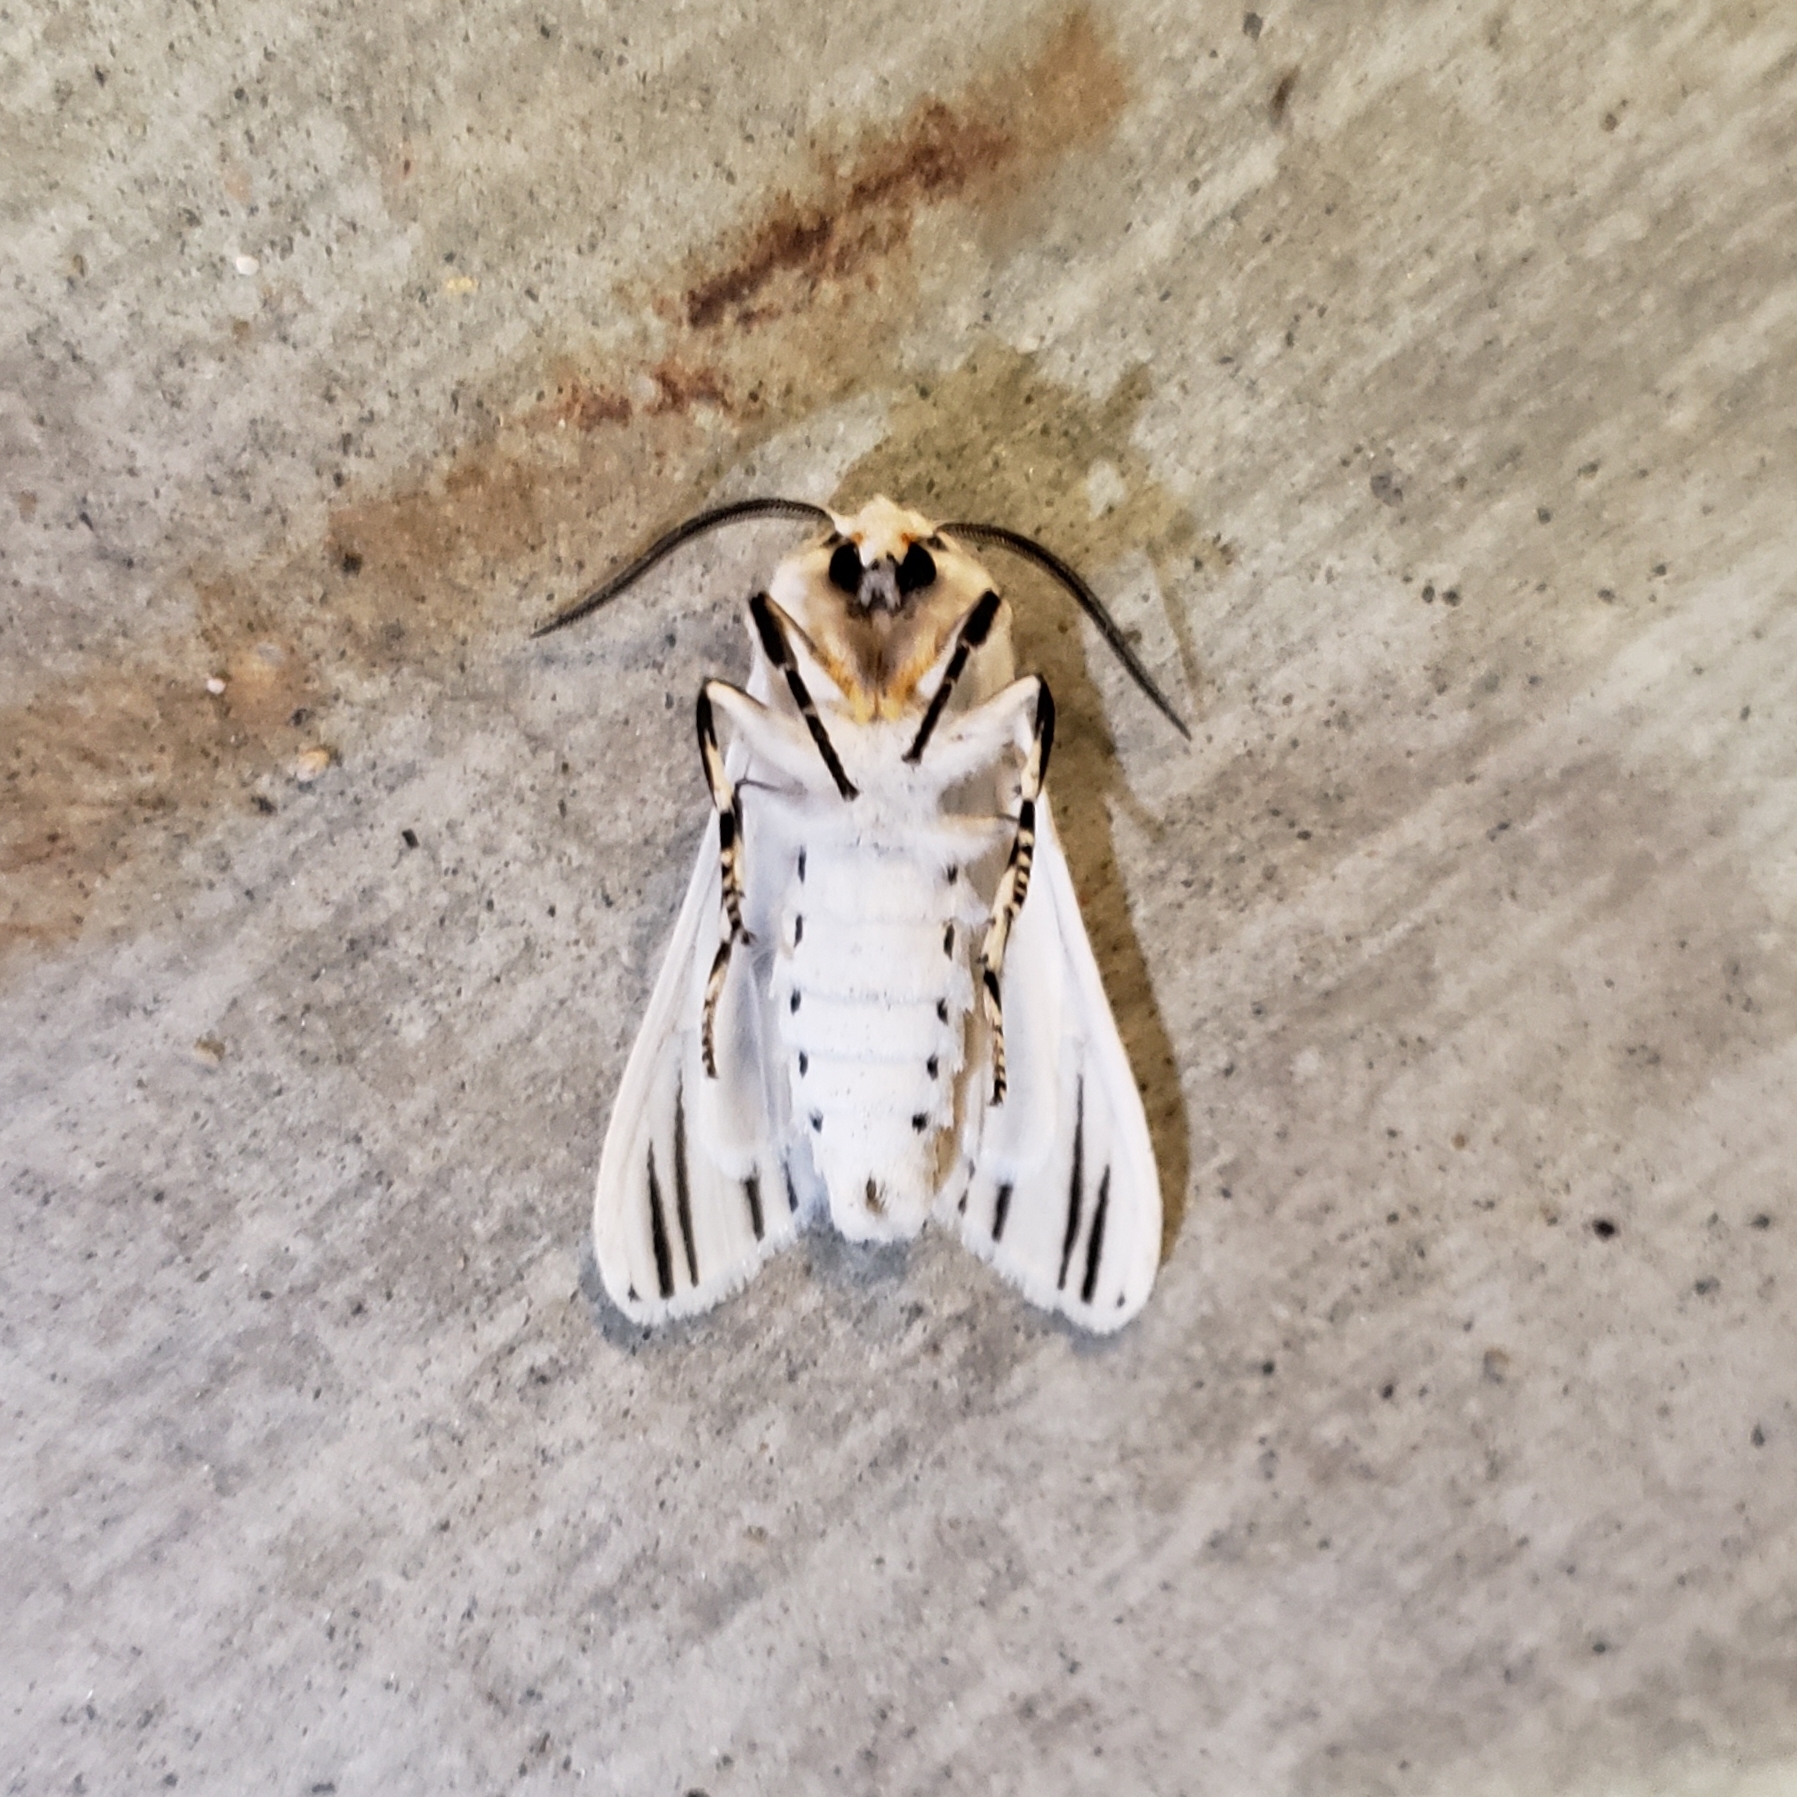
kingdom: Animalia
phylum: Arthropoda
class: Insecta
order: Lepidoptera
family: Erebidae
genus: Ectypia
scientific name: Ectypia clio
